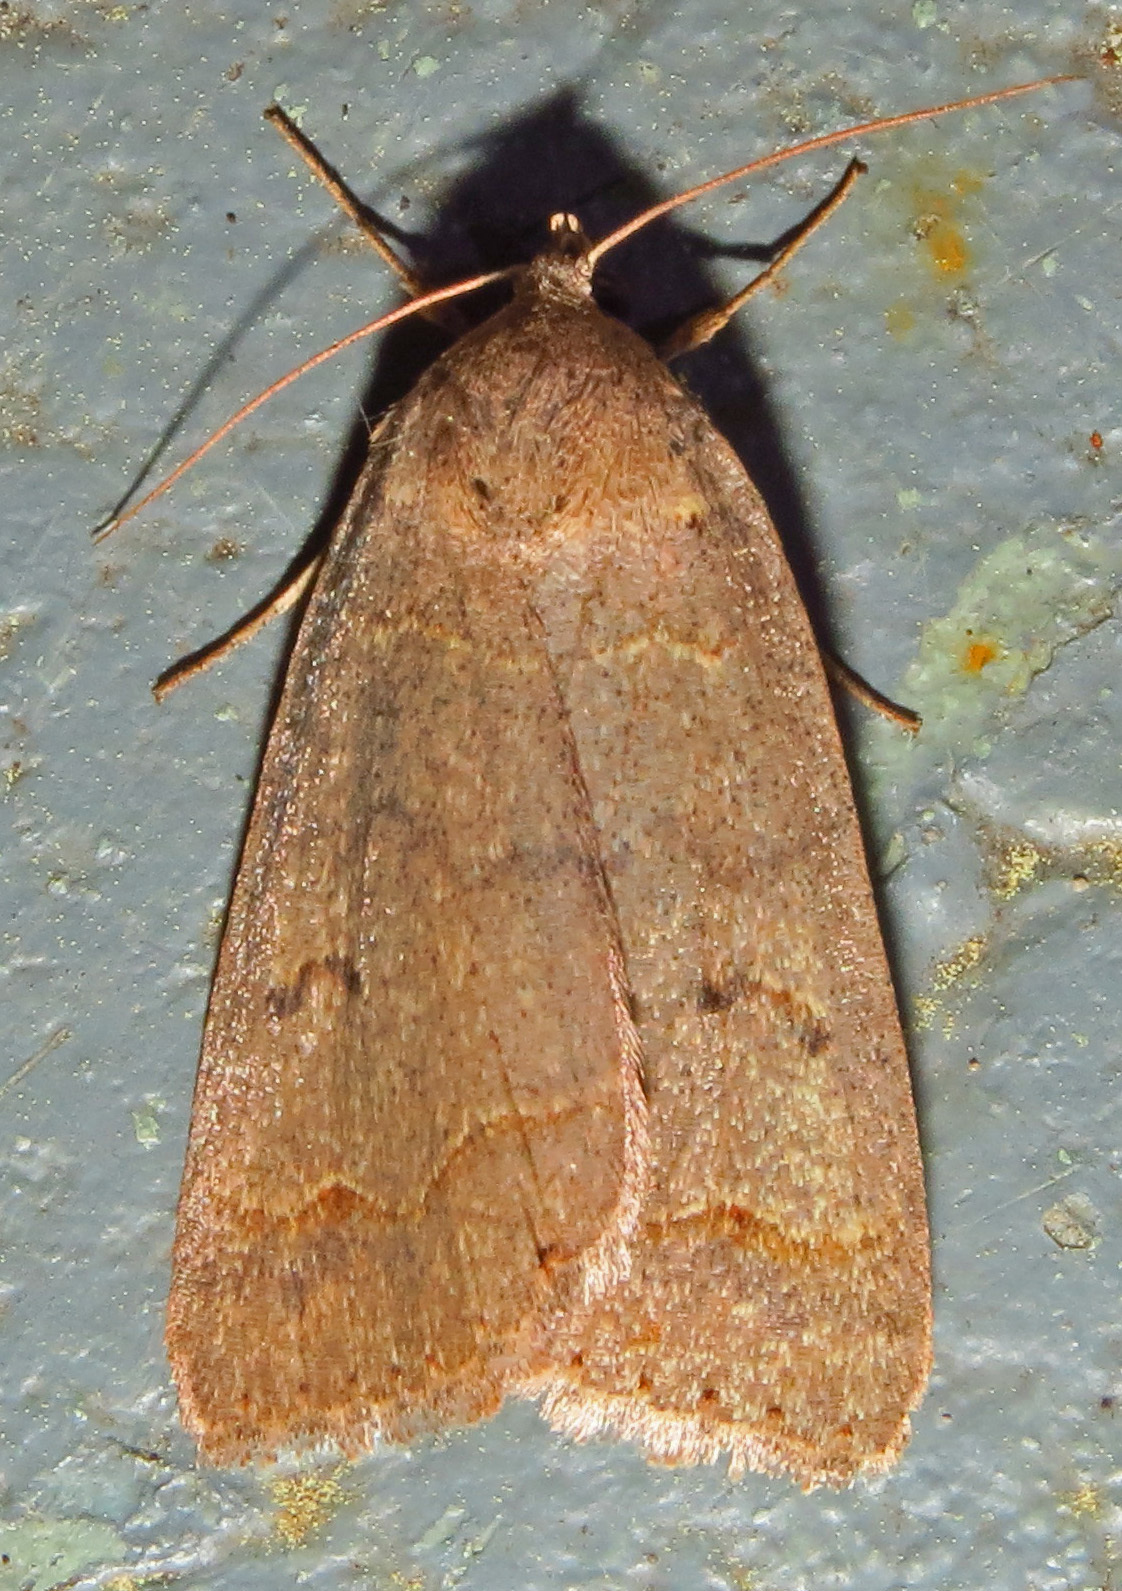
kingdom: Animalia
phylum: Arthropoda
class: Insecta
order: Lepidoptera
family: Erebidae
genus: Phoberia
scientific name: Phoberia atomaris
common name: Common oak moth
